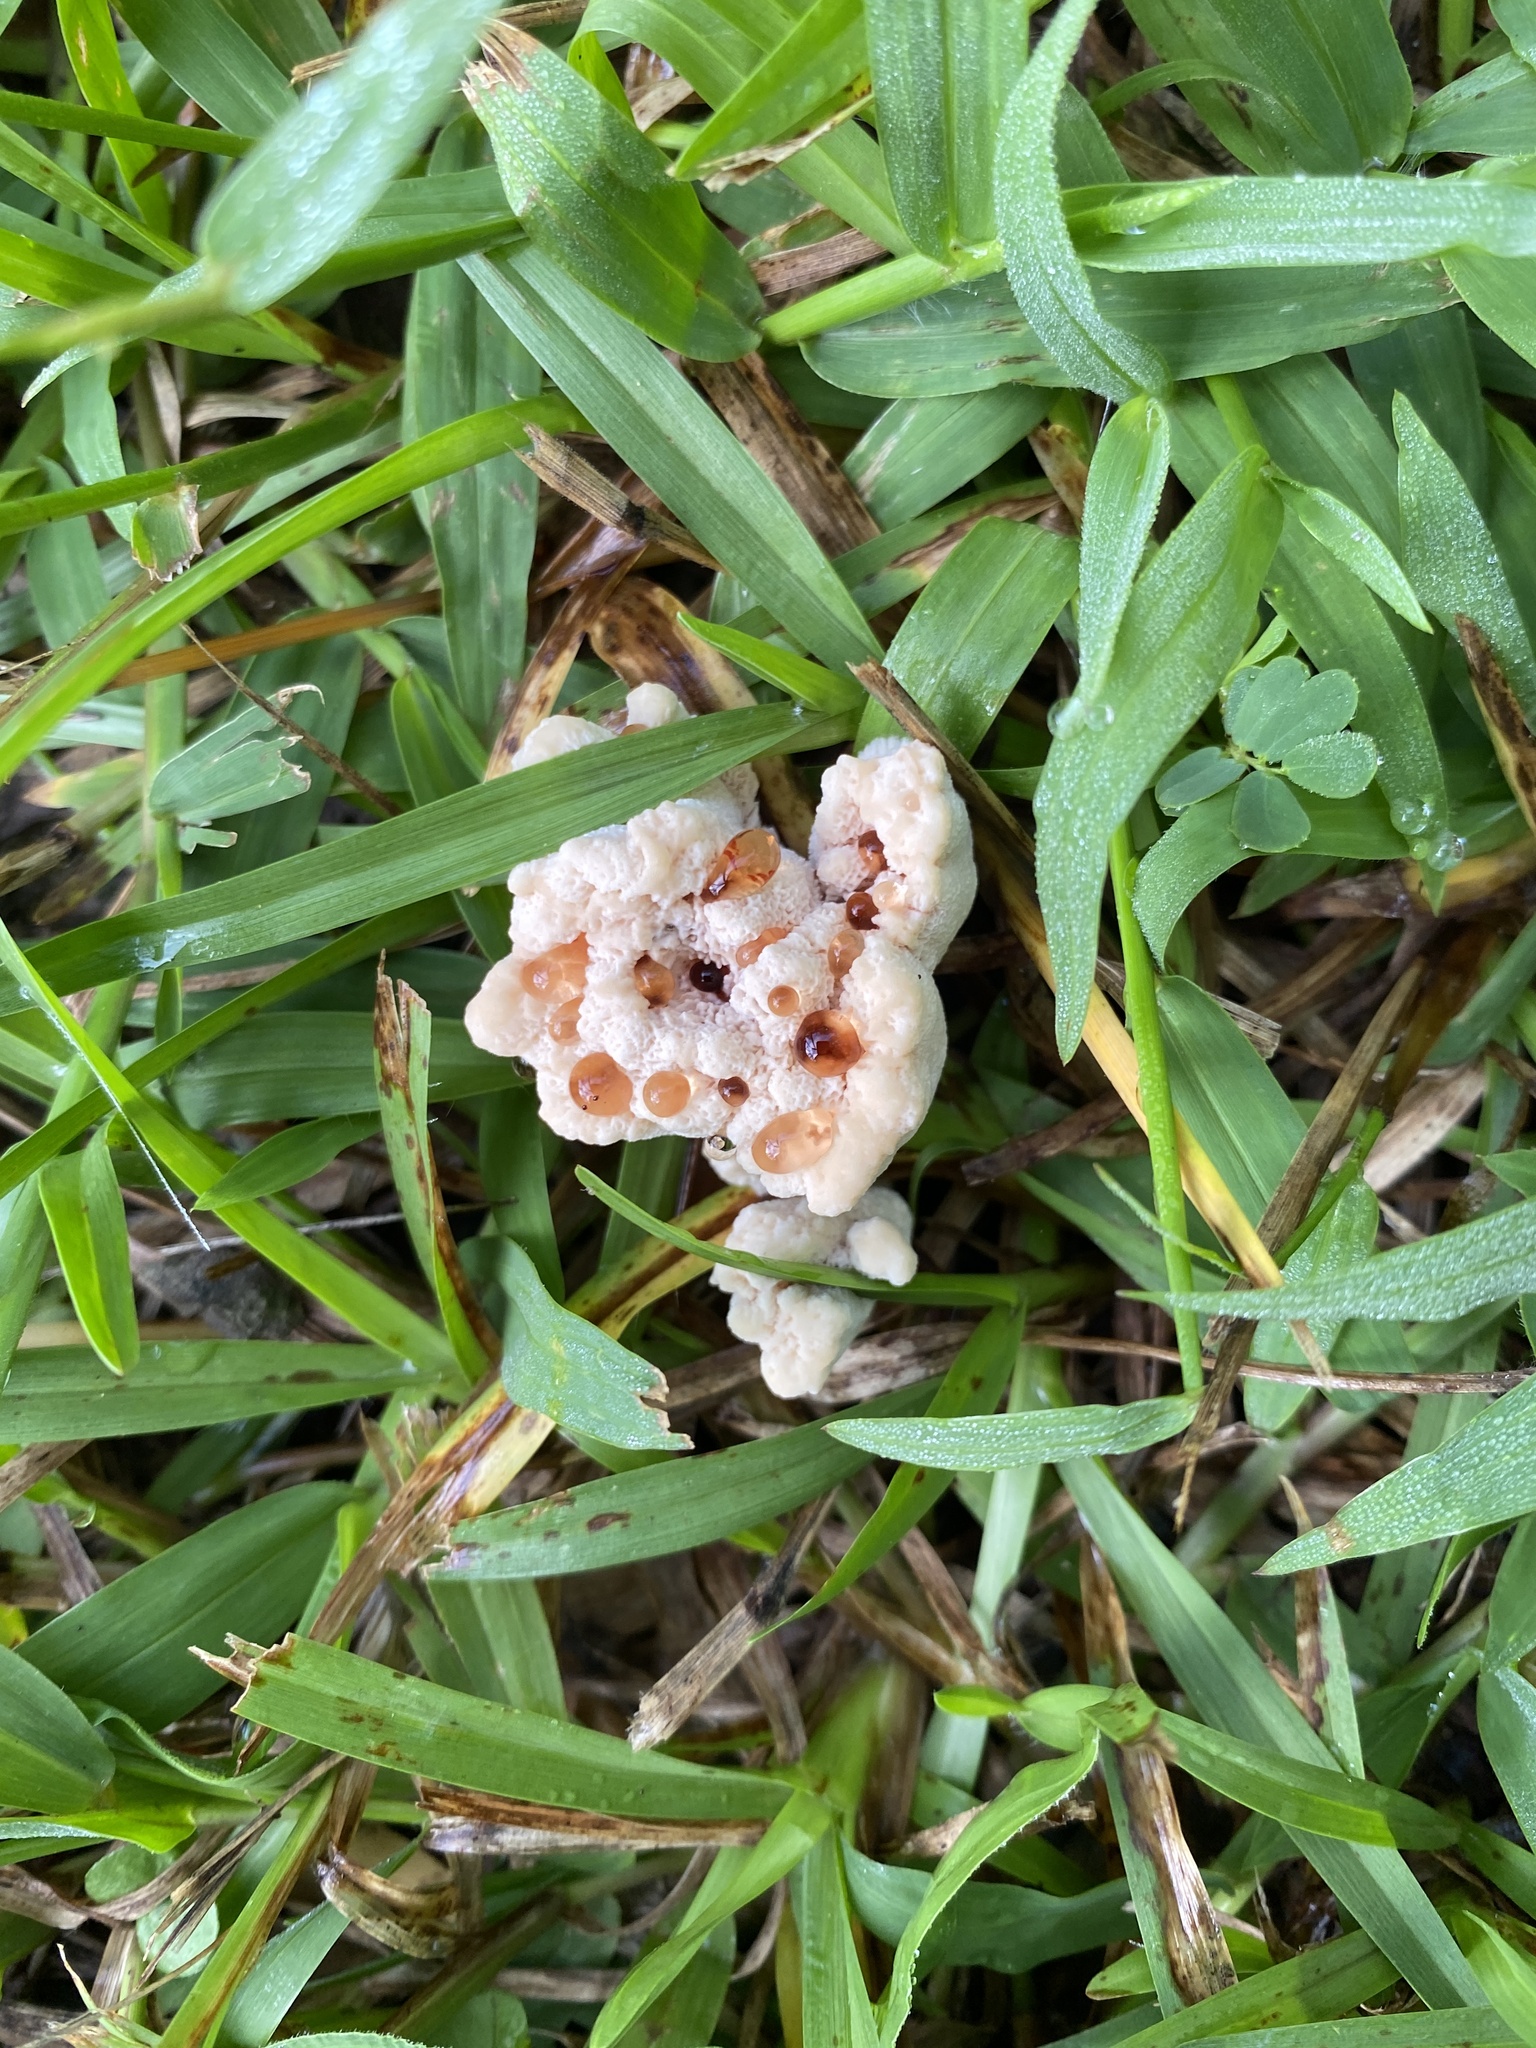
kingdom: Fungi
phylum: Basidiomycota
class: Agaricomycetes
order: Polyporales
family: Podoscyphaceae
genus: Abortiporus
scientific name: Abortiporus biennis
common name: Blushing rosette
